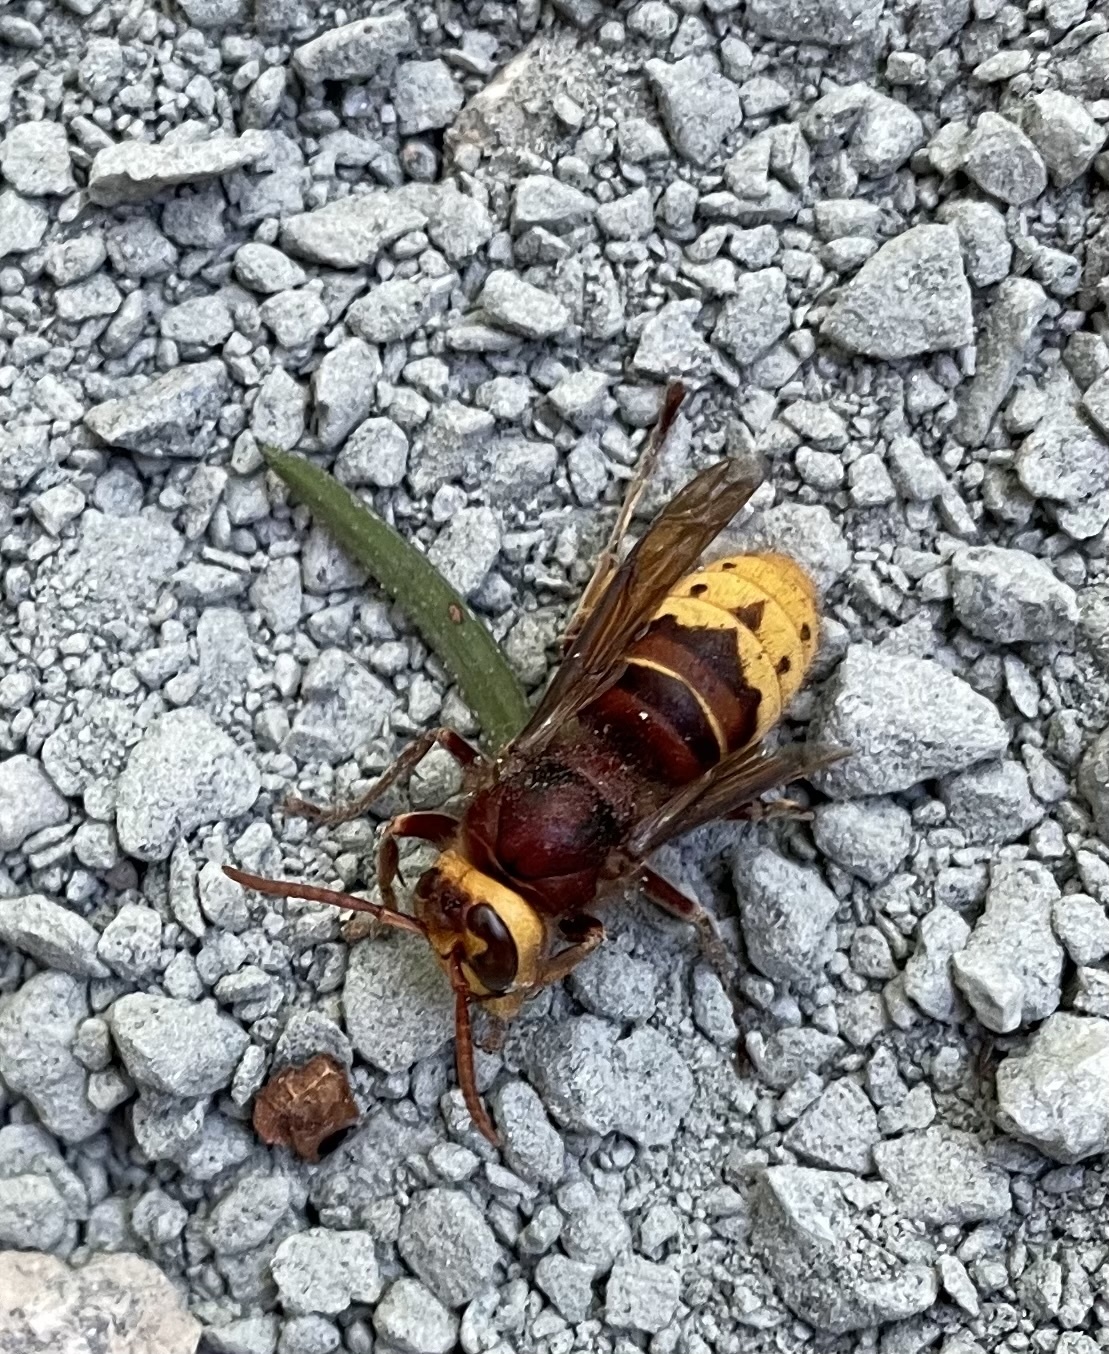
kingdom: Animalia
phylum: Arthropoda
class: Insecta
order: Hymenoptera
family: Vespidae
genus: Vespa
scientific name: Vespa crabro
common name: Hornet
